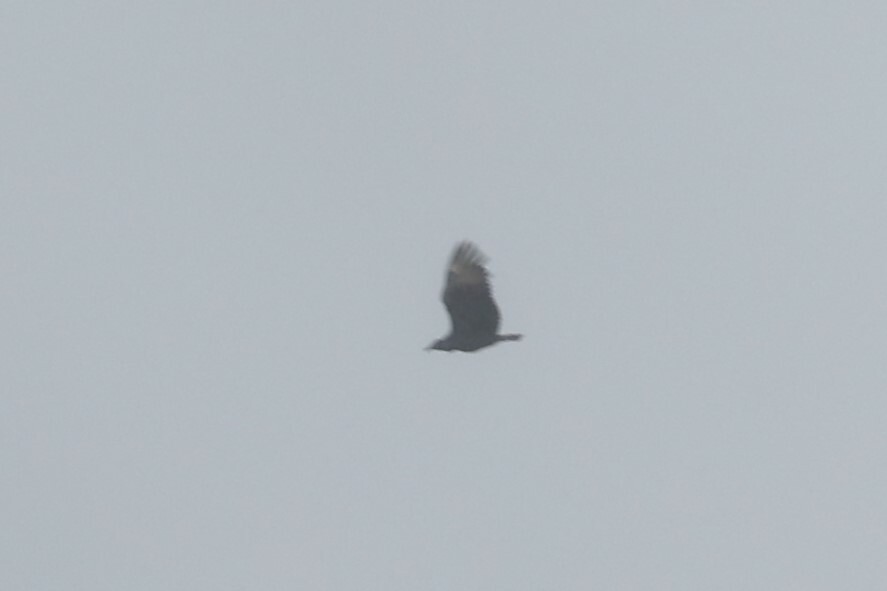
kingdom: Animalia
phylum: Chordata
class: Aves
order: Accipitriformes
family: Cathartidae
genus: Coragyps
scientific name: Coragyps atratus
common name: Black vulture
